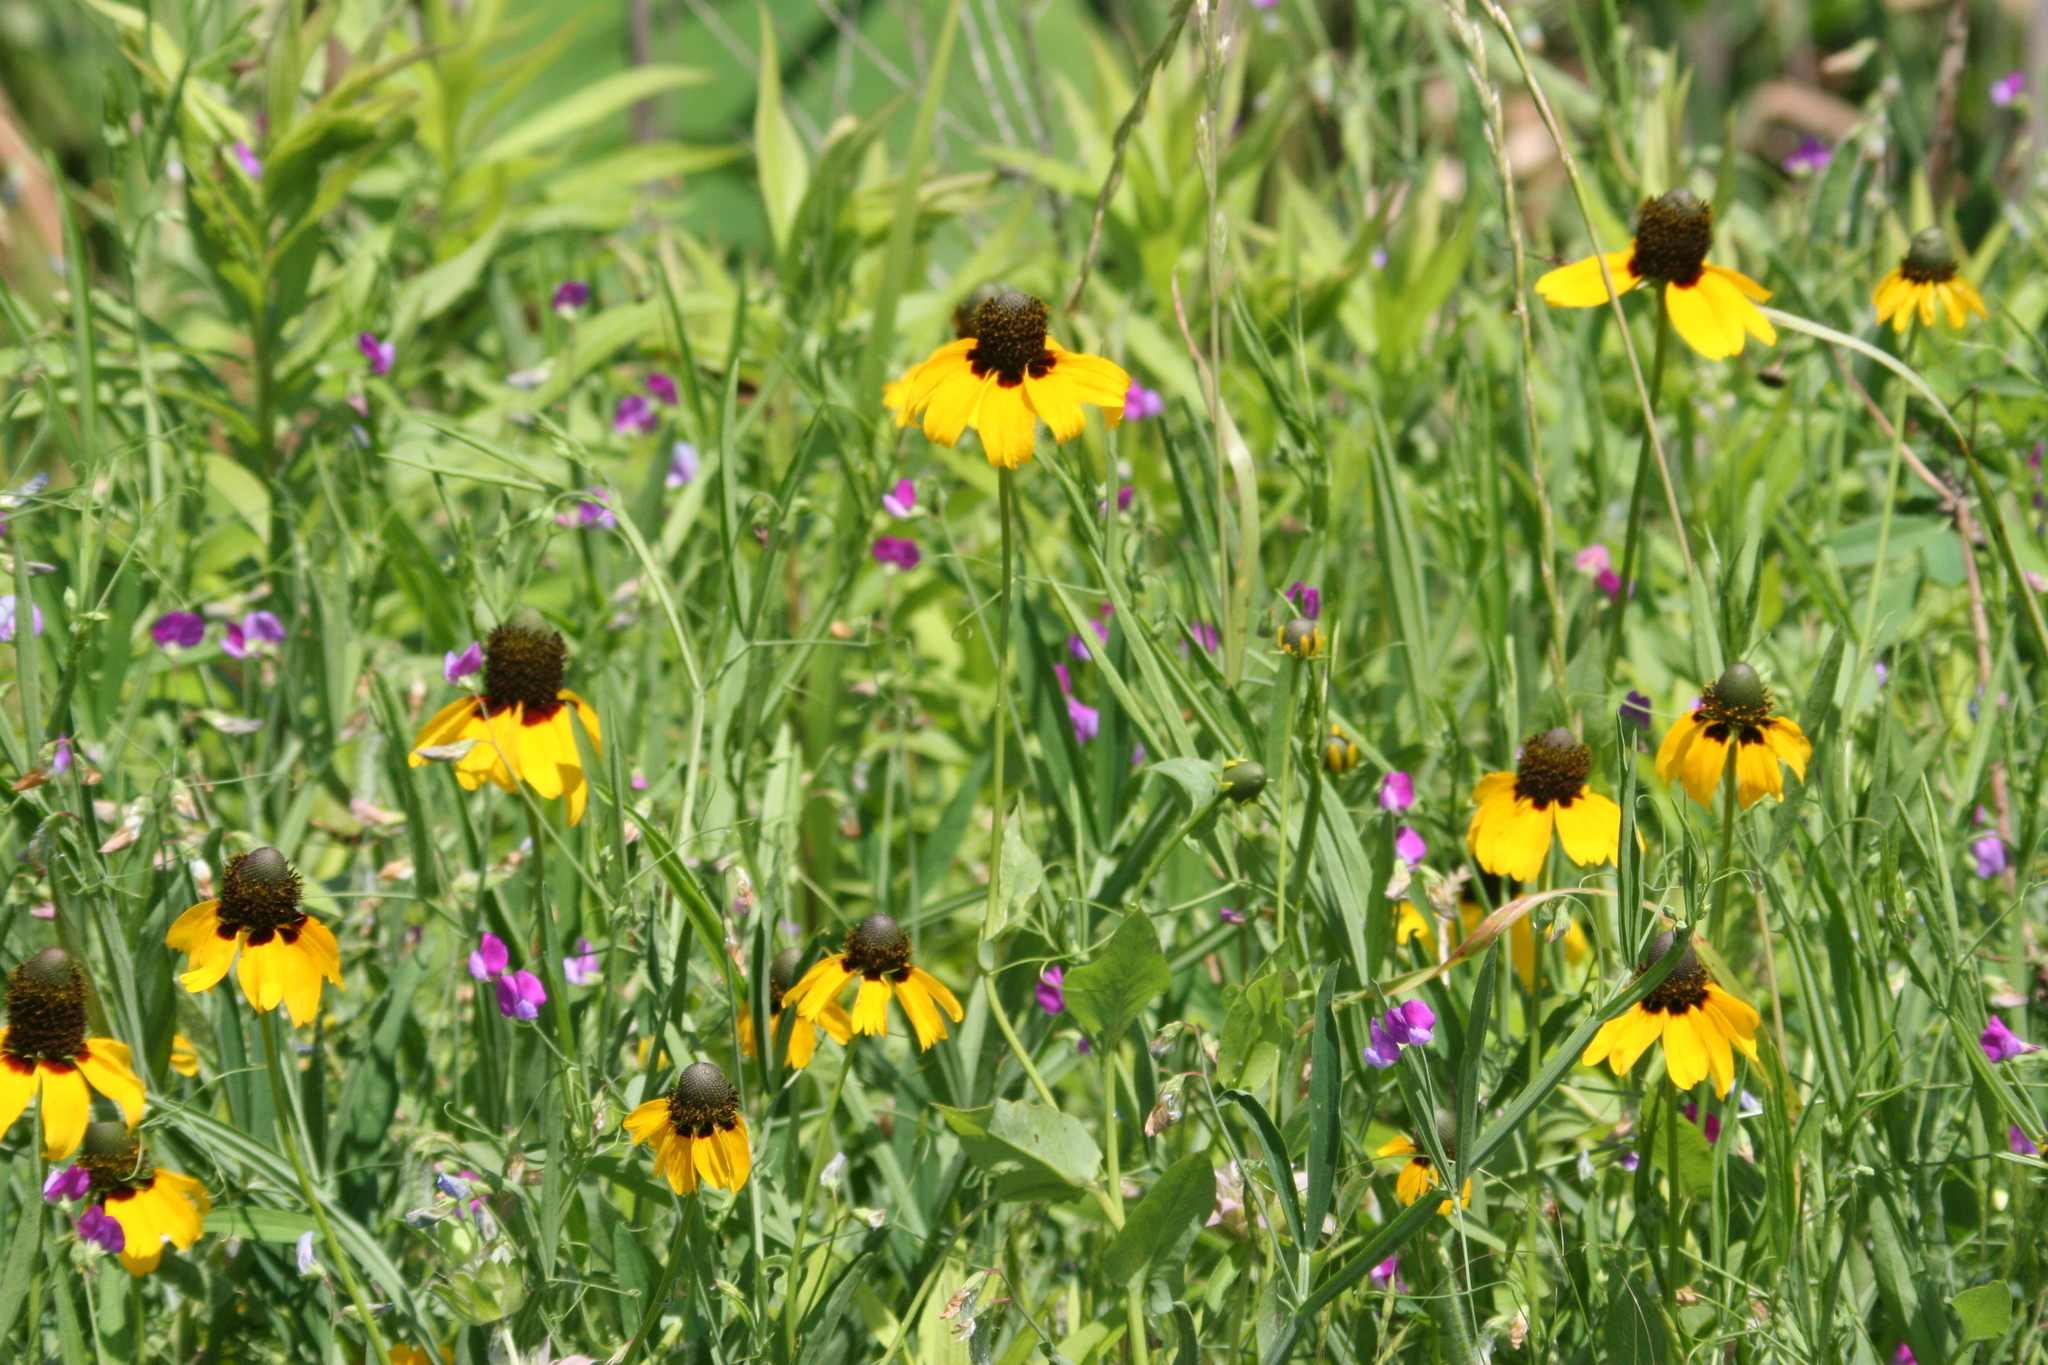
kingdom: Plantae
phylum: Tracheophyta
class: Magnoliopsida
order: Asterales
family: Asteraceae
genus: Rudbeckia
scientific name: Rudbeckia amplexicaulis
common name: Clasping-leaf coneflower
